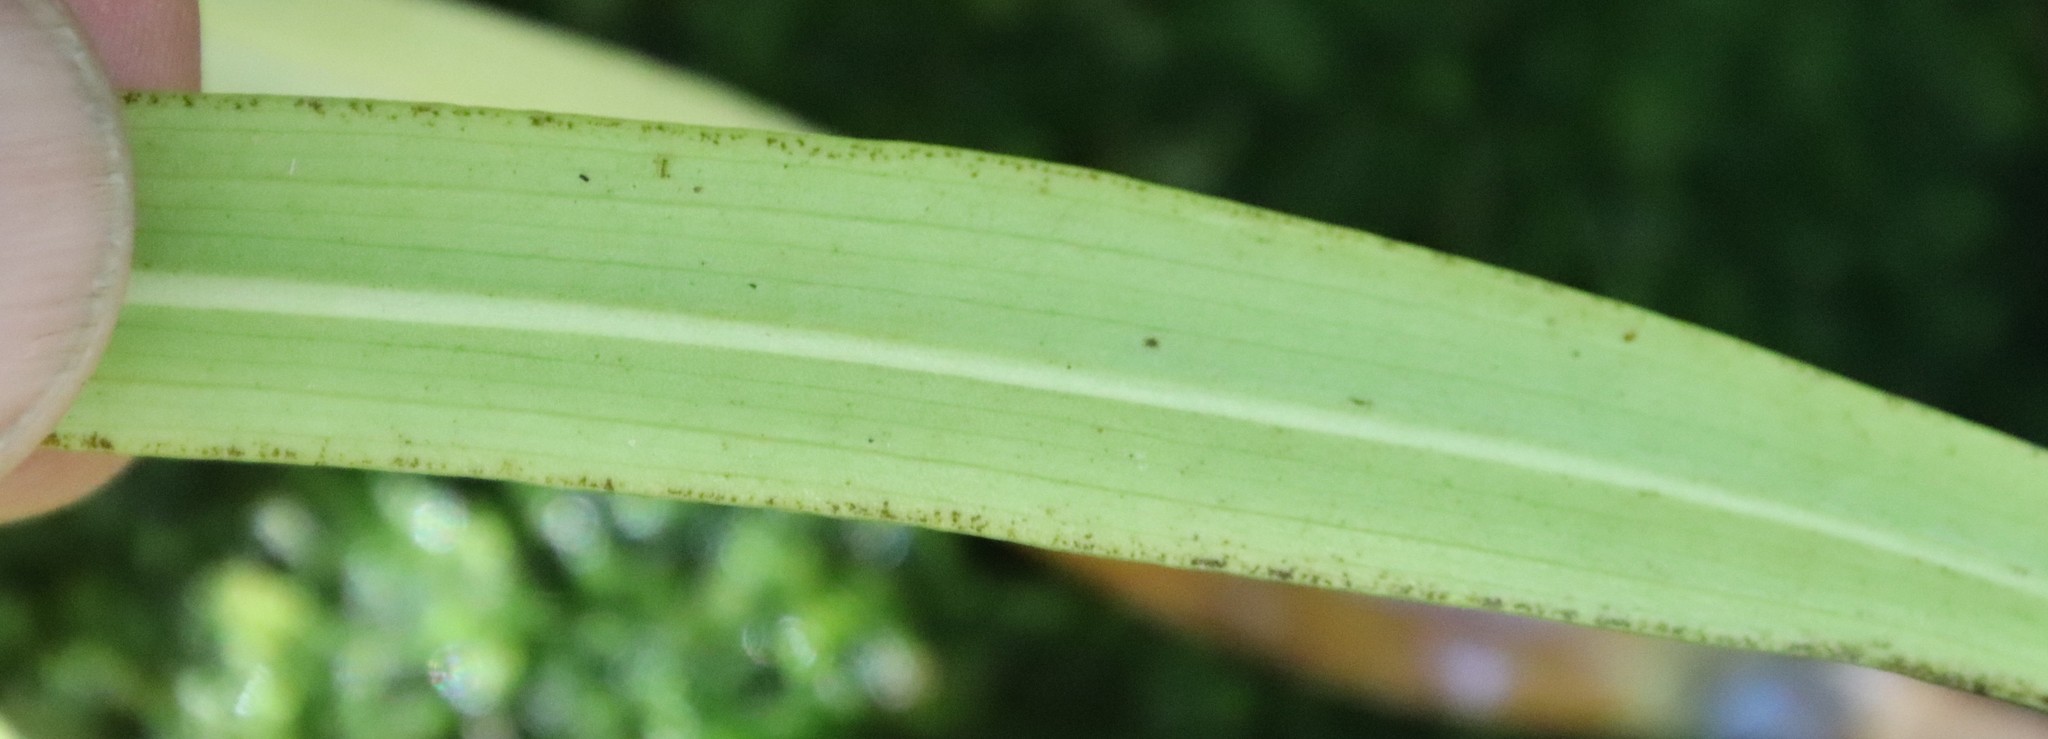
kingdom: Plantae
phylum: Tracheophyta
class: Liliopsida
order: Asparagales
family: Orchidaceae
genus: Disa
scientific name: Disa uniflora
